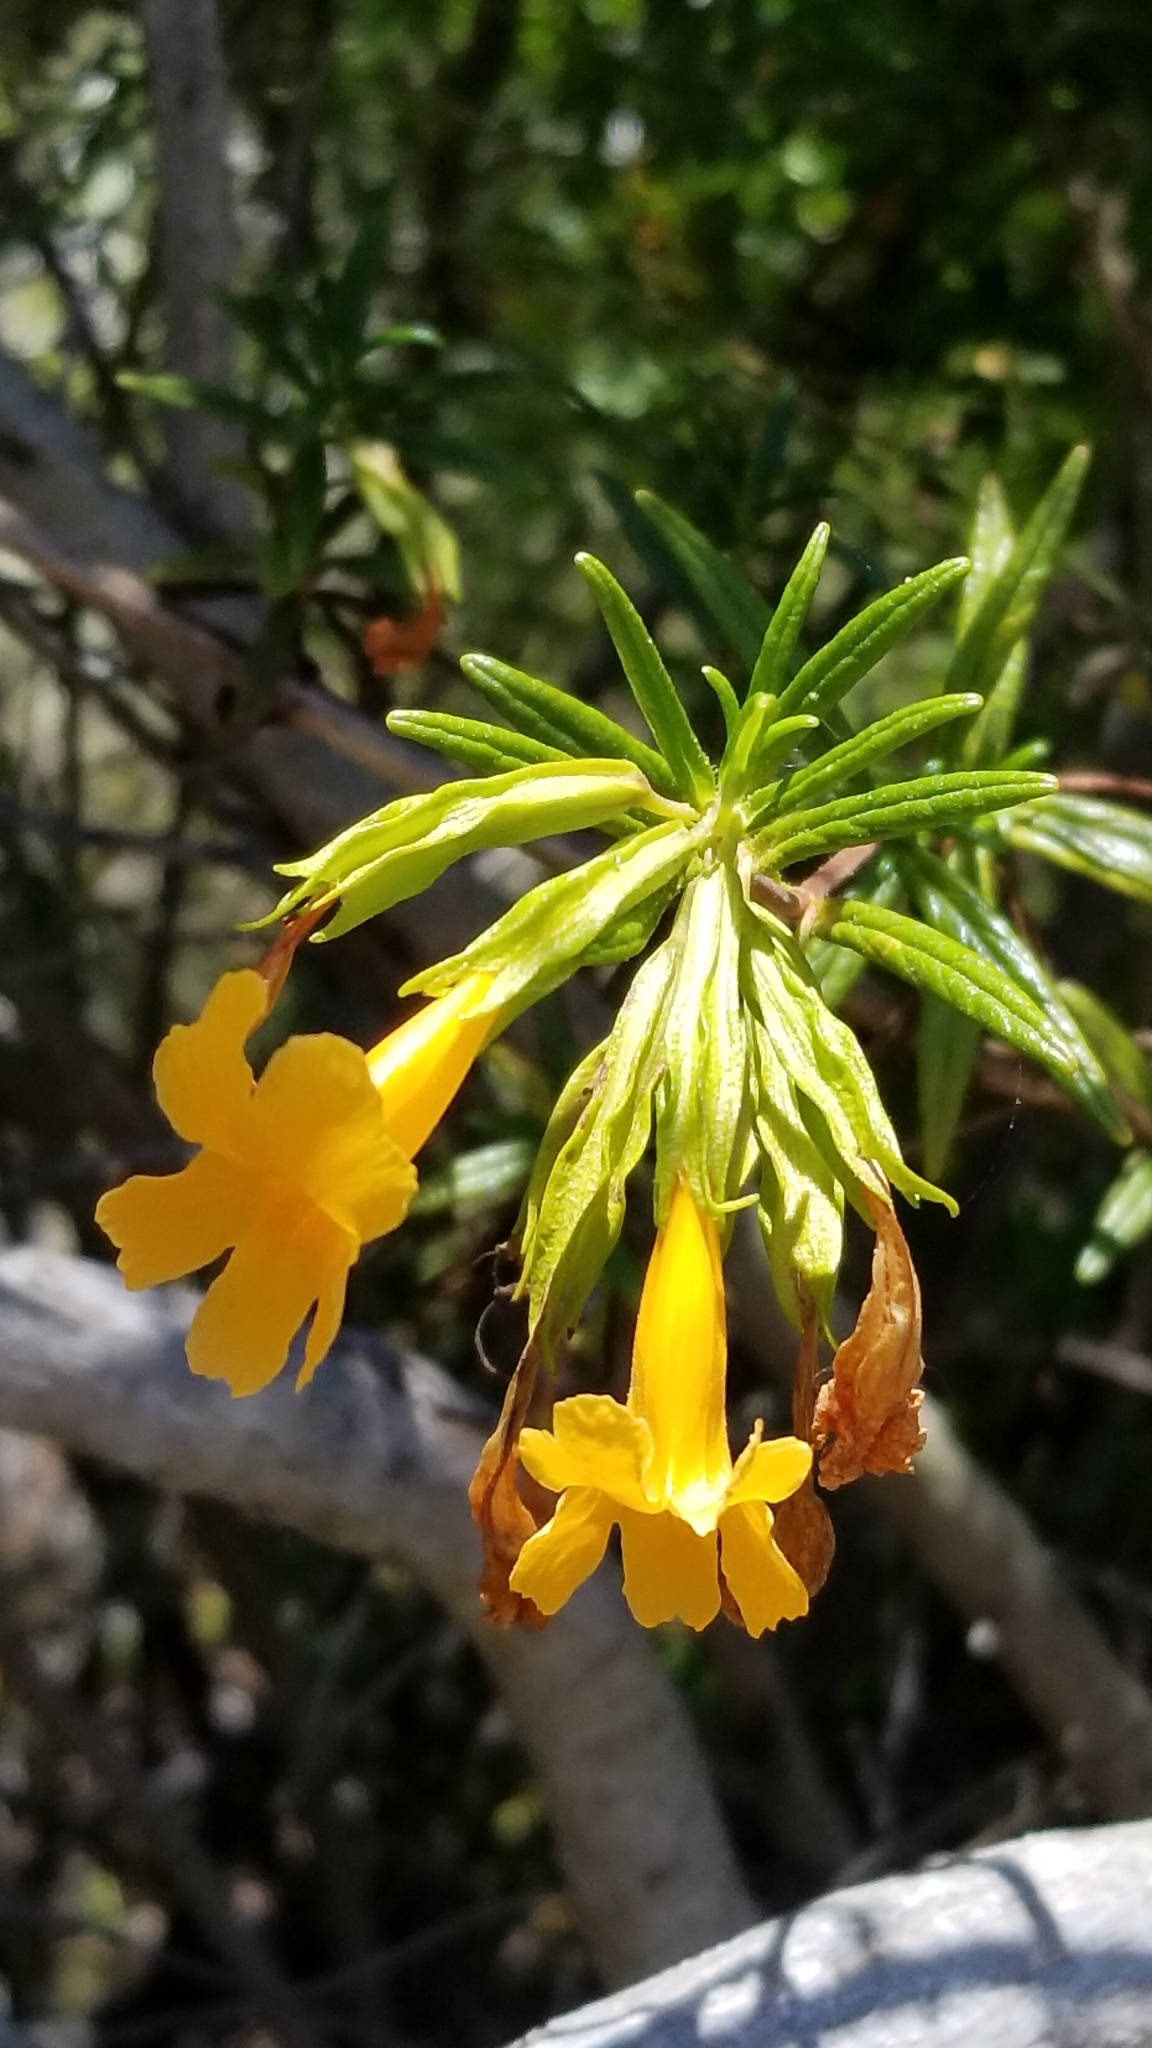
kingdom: Plantae
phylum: Tracheophyta
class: Magnoliopsida
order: Lamiales
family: Phrymaceae
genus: Diplacus
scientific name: Diplacus aurantiacus
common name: Bush monkey-flower
